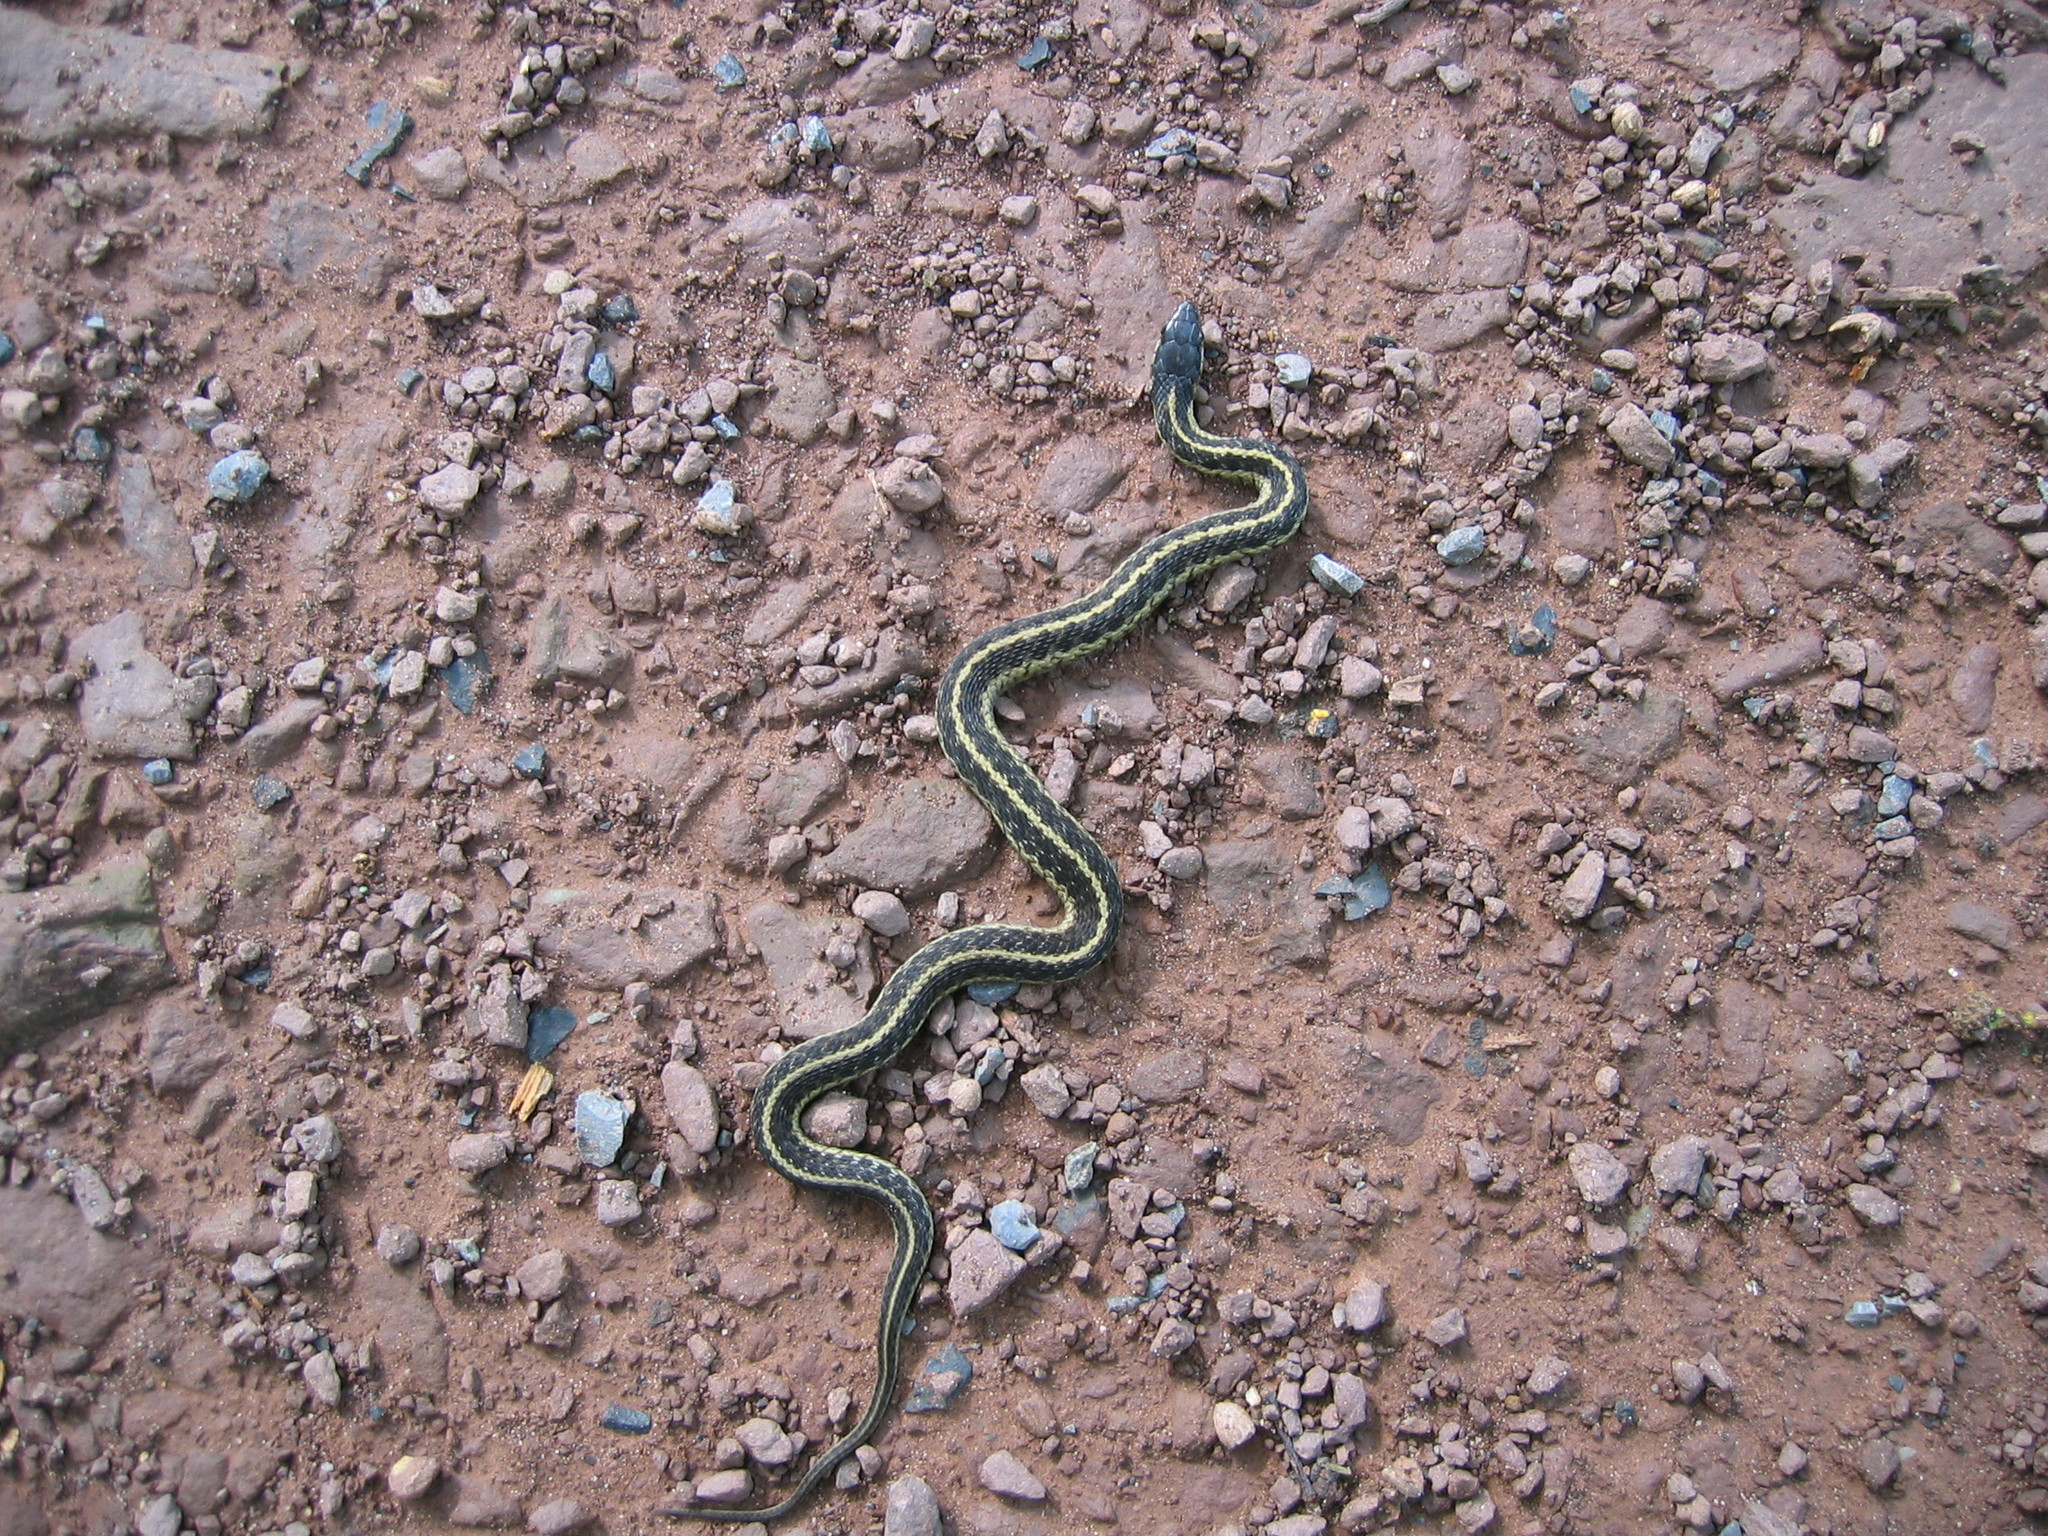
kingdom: Animalia
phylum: Chordata
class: Squamata
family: Colubridae
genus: Thamnophis
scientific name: Thamnophis sirtalis
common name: Common garter snake
